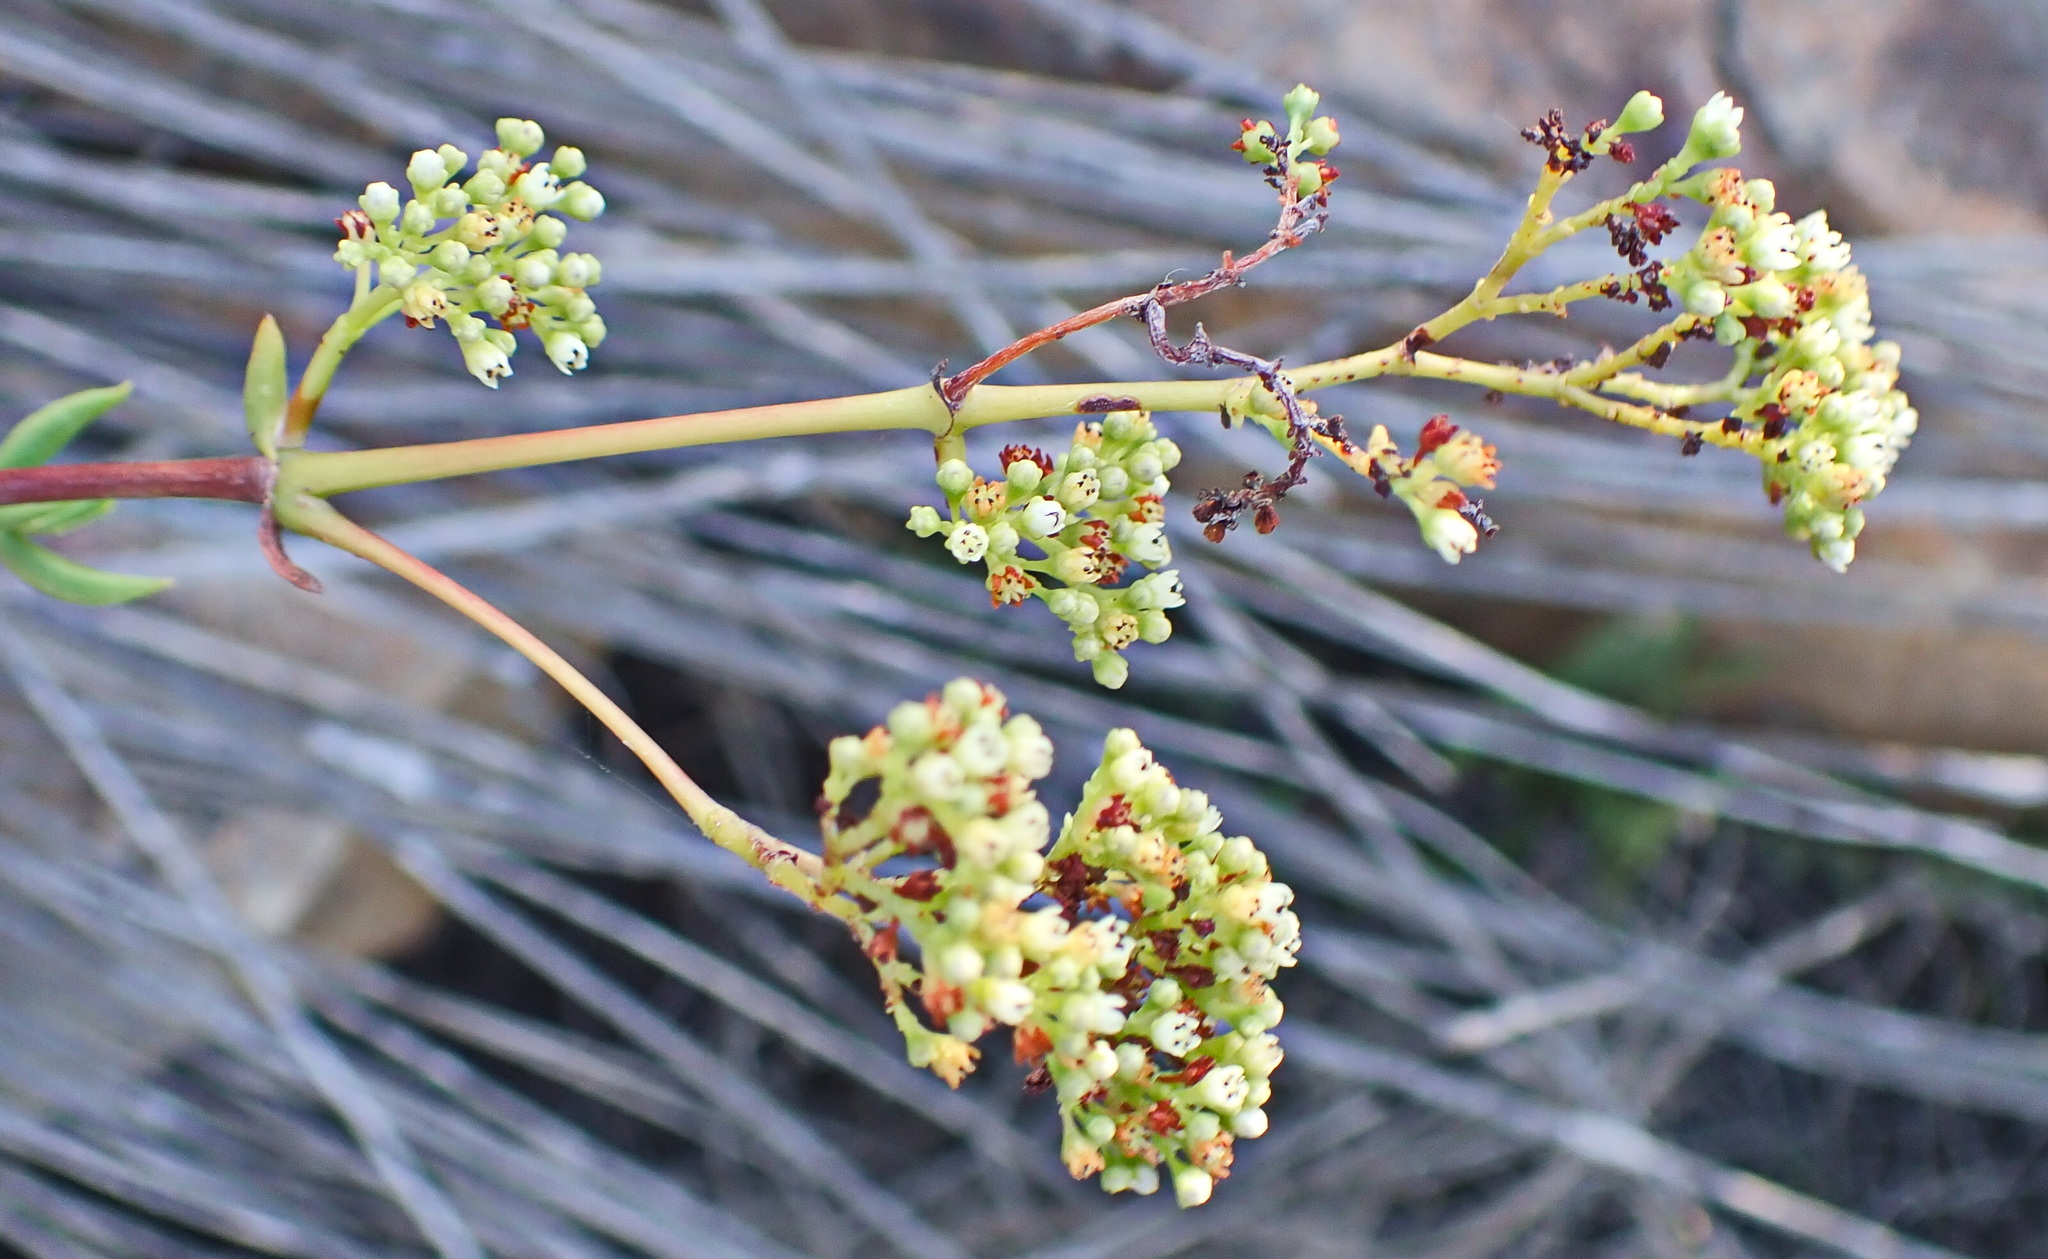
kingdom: Plantae
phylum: Tracheophyta
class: Magnoliopsida
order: Saxifragales
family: Crassulaceae
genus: Crassula
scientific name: Crassula tetragona
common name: Pygmyweed
